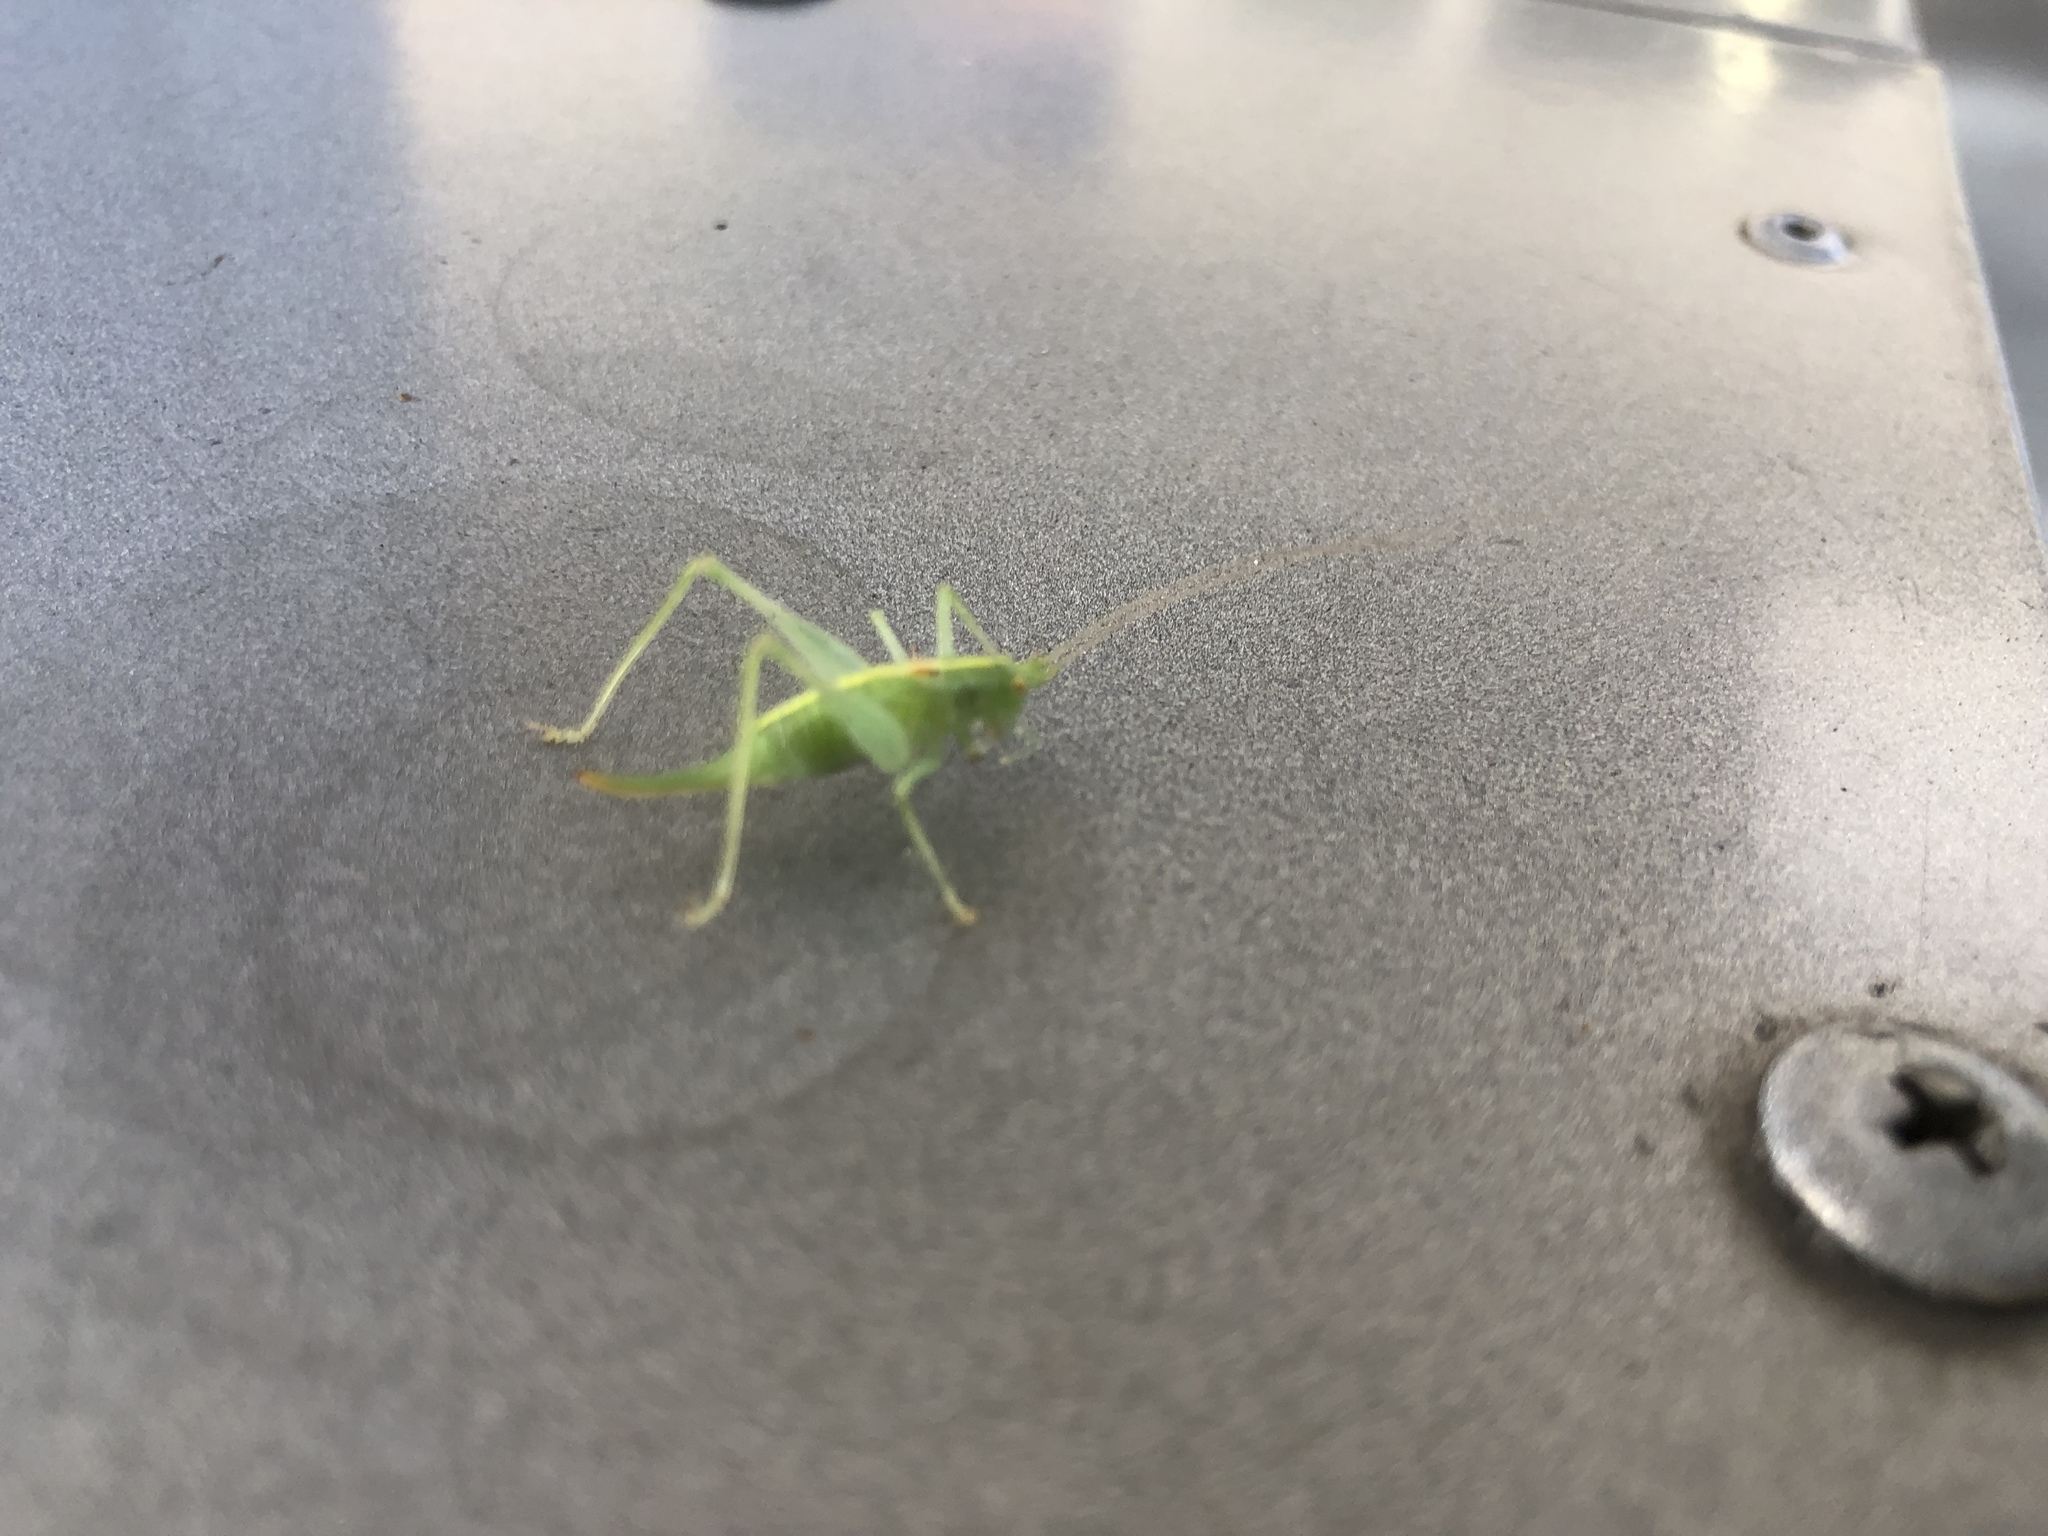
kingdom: Animalia
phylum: Arthropoda
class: Insecta
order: Orthoptera
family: Tettigoniidae
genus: Meconema
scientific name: Meconema meridionale
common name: Southern oak bush-cricket
